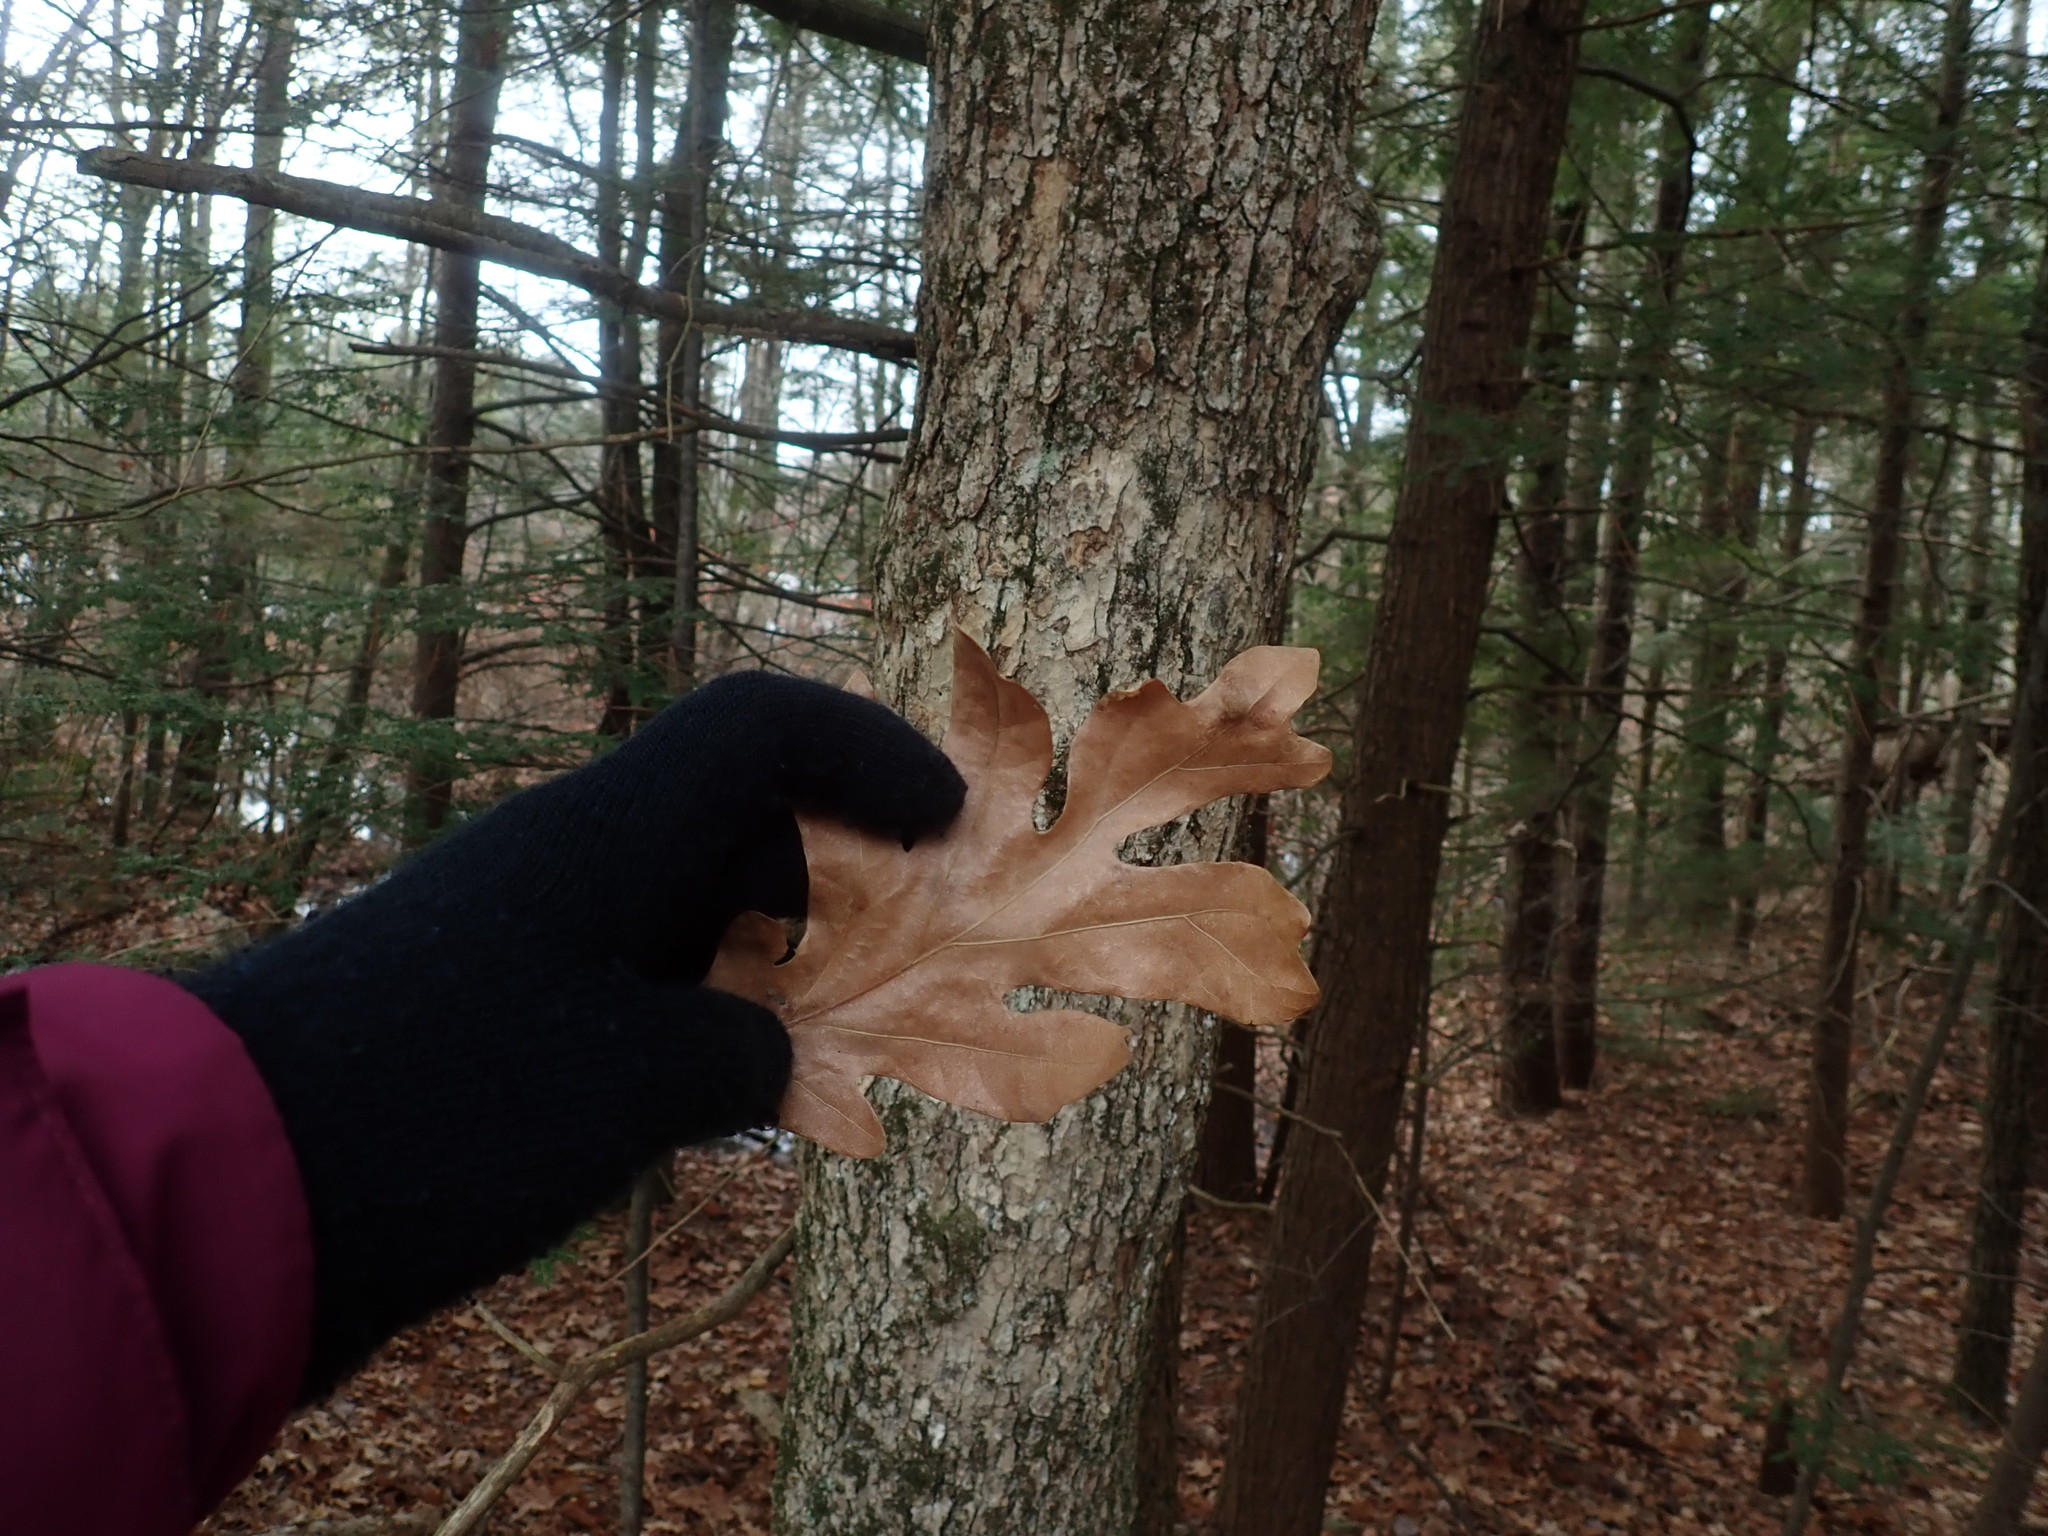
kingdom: Plantae
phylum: Tracheophyta
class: Magnoliopsida
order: Fagales
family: Fagaceae
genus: Quercus
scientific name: Quercus alba
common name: White oak
